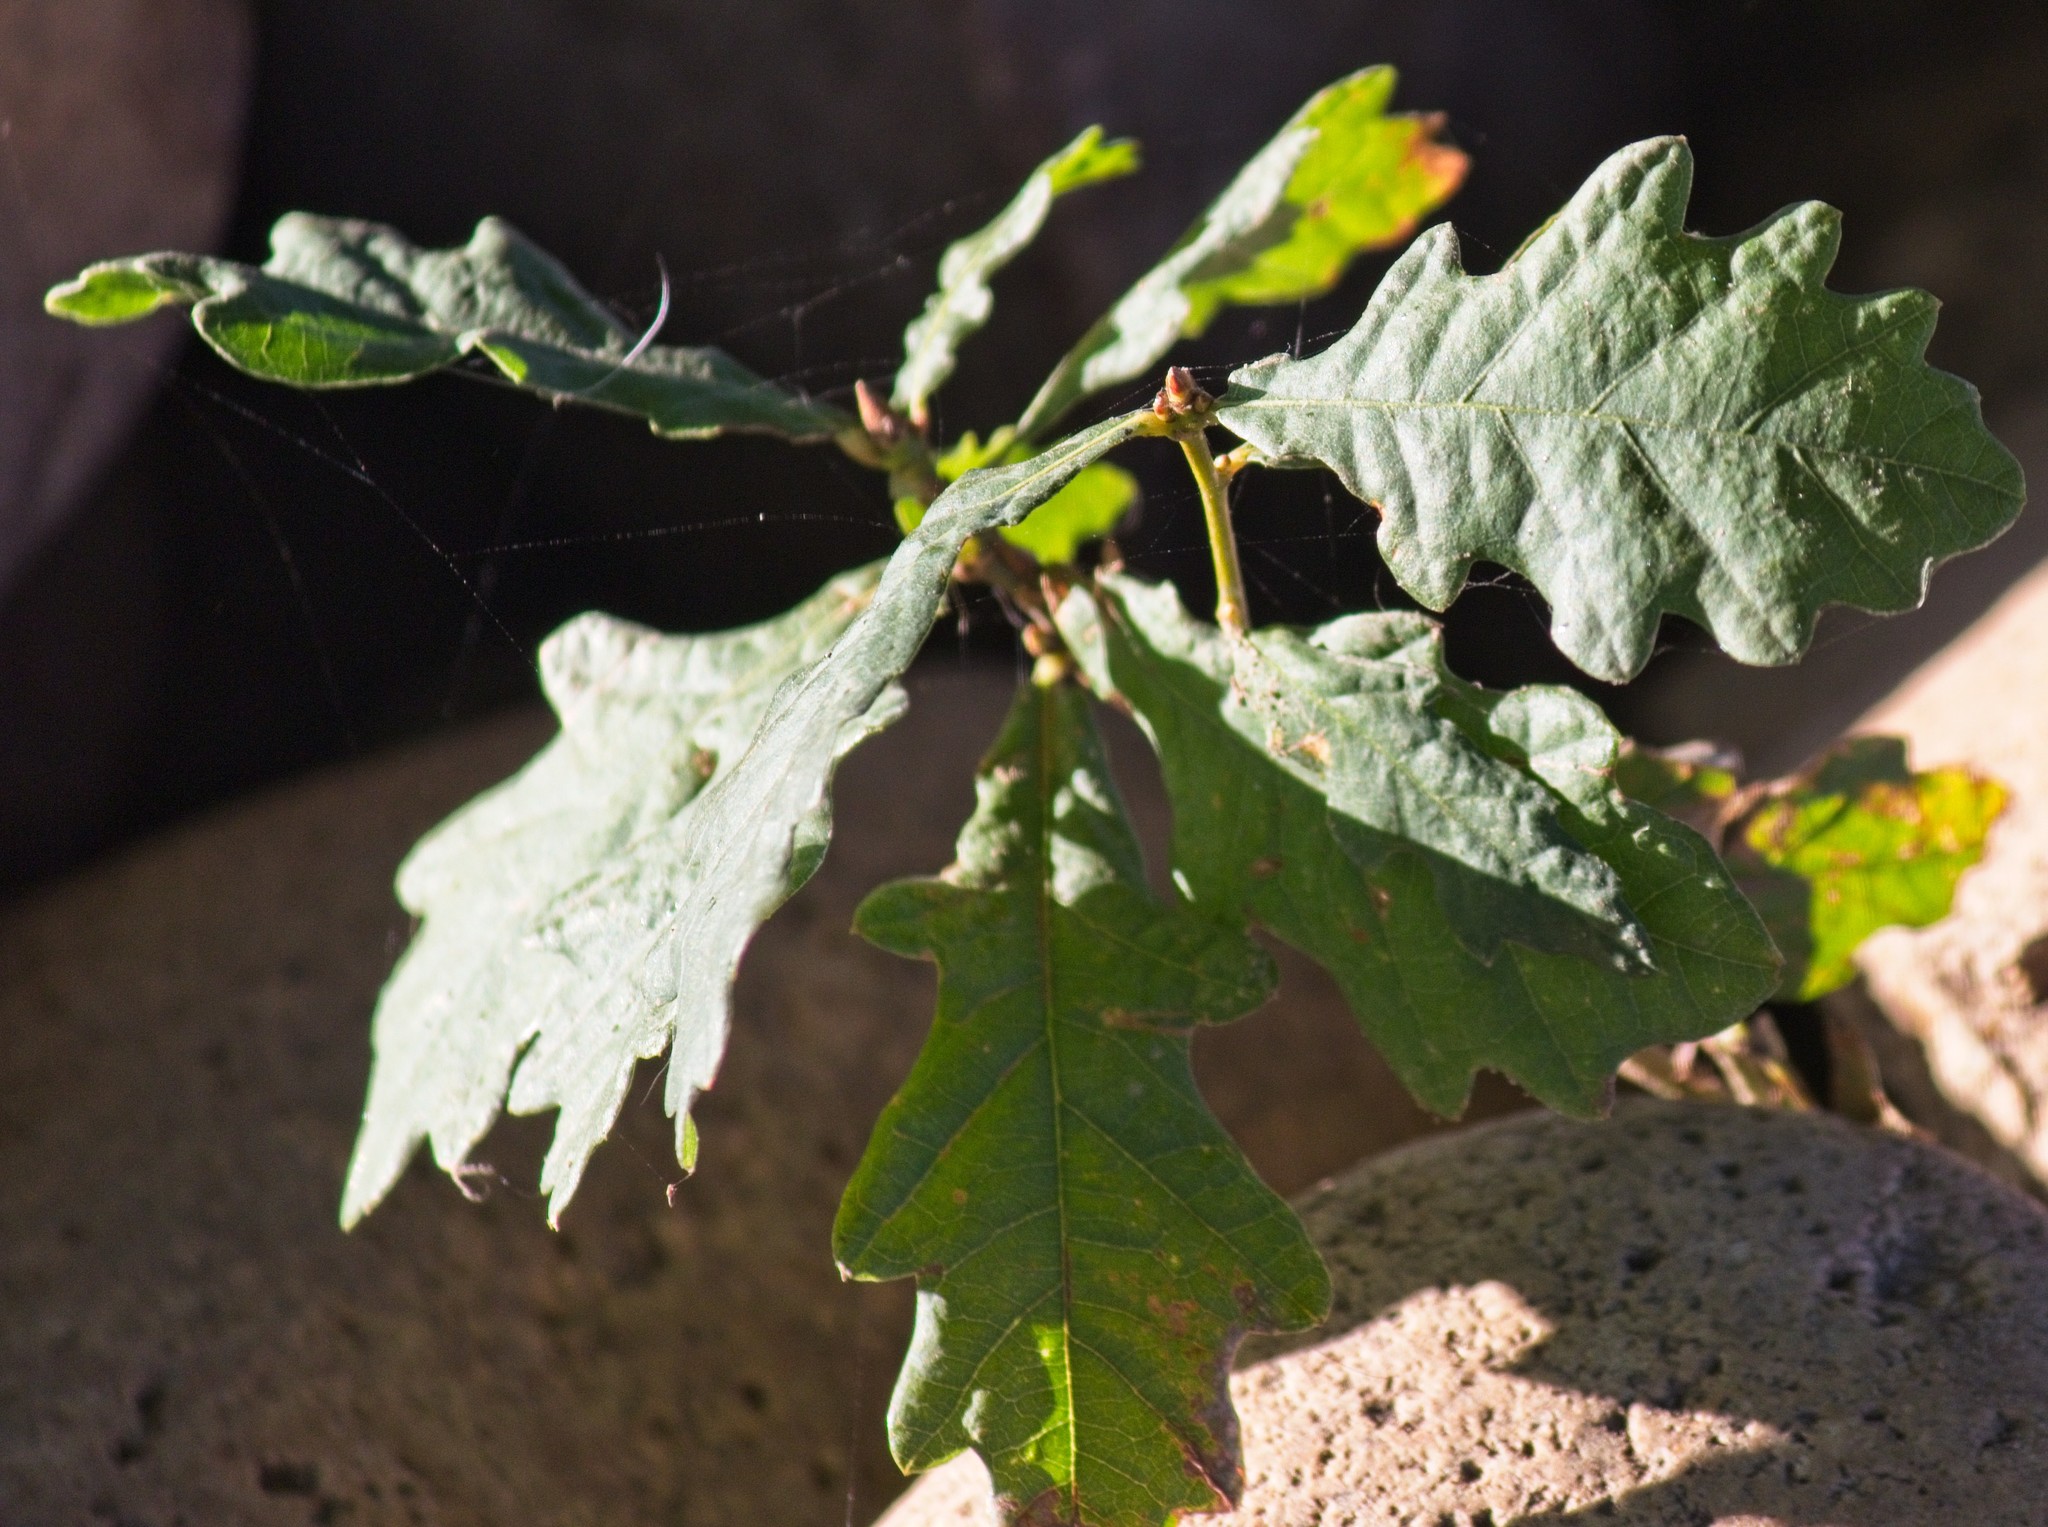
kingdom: Plantae
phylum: Tracheophyta
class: Magnoliopsida
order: Fagales
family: Fagaceae
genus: Quercus
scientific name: Quercus robur
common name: Pedunculate oak
